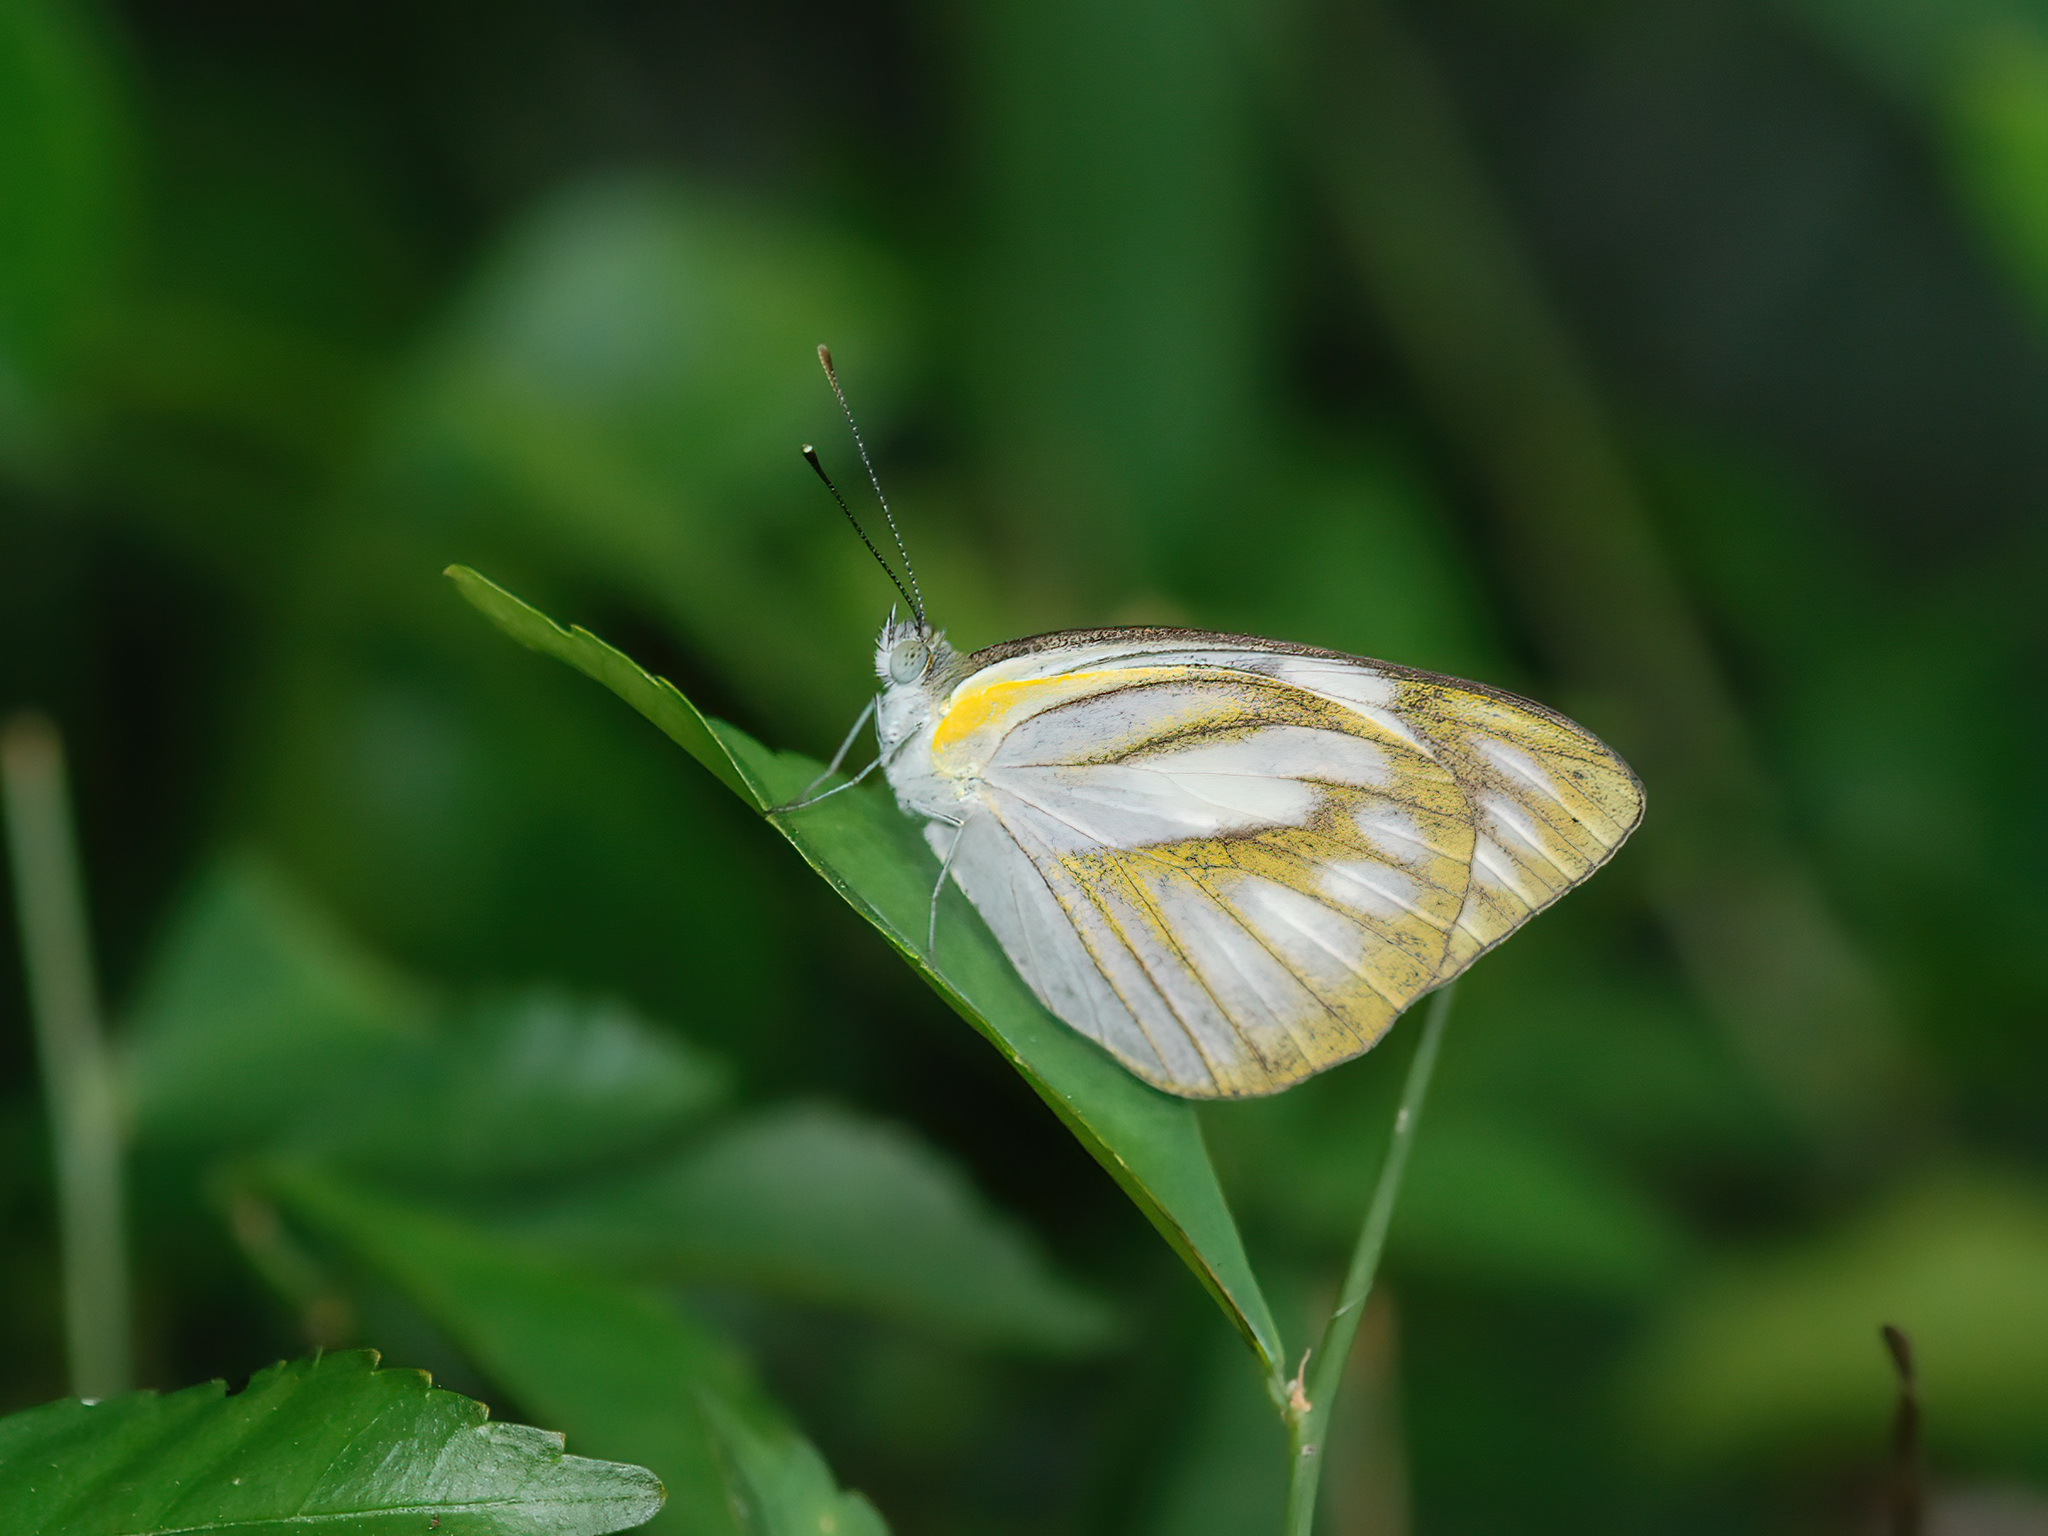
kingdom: Animalia
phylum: Arthropoda
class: Insecta
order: Lepidoptera
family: Pieridae
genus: Appias
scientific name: Appias libythea
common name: Striped albatross
